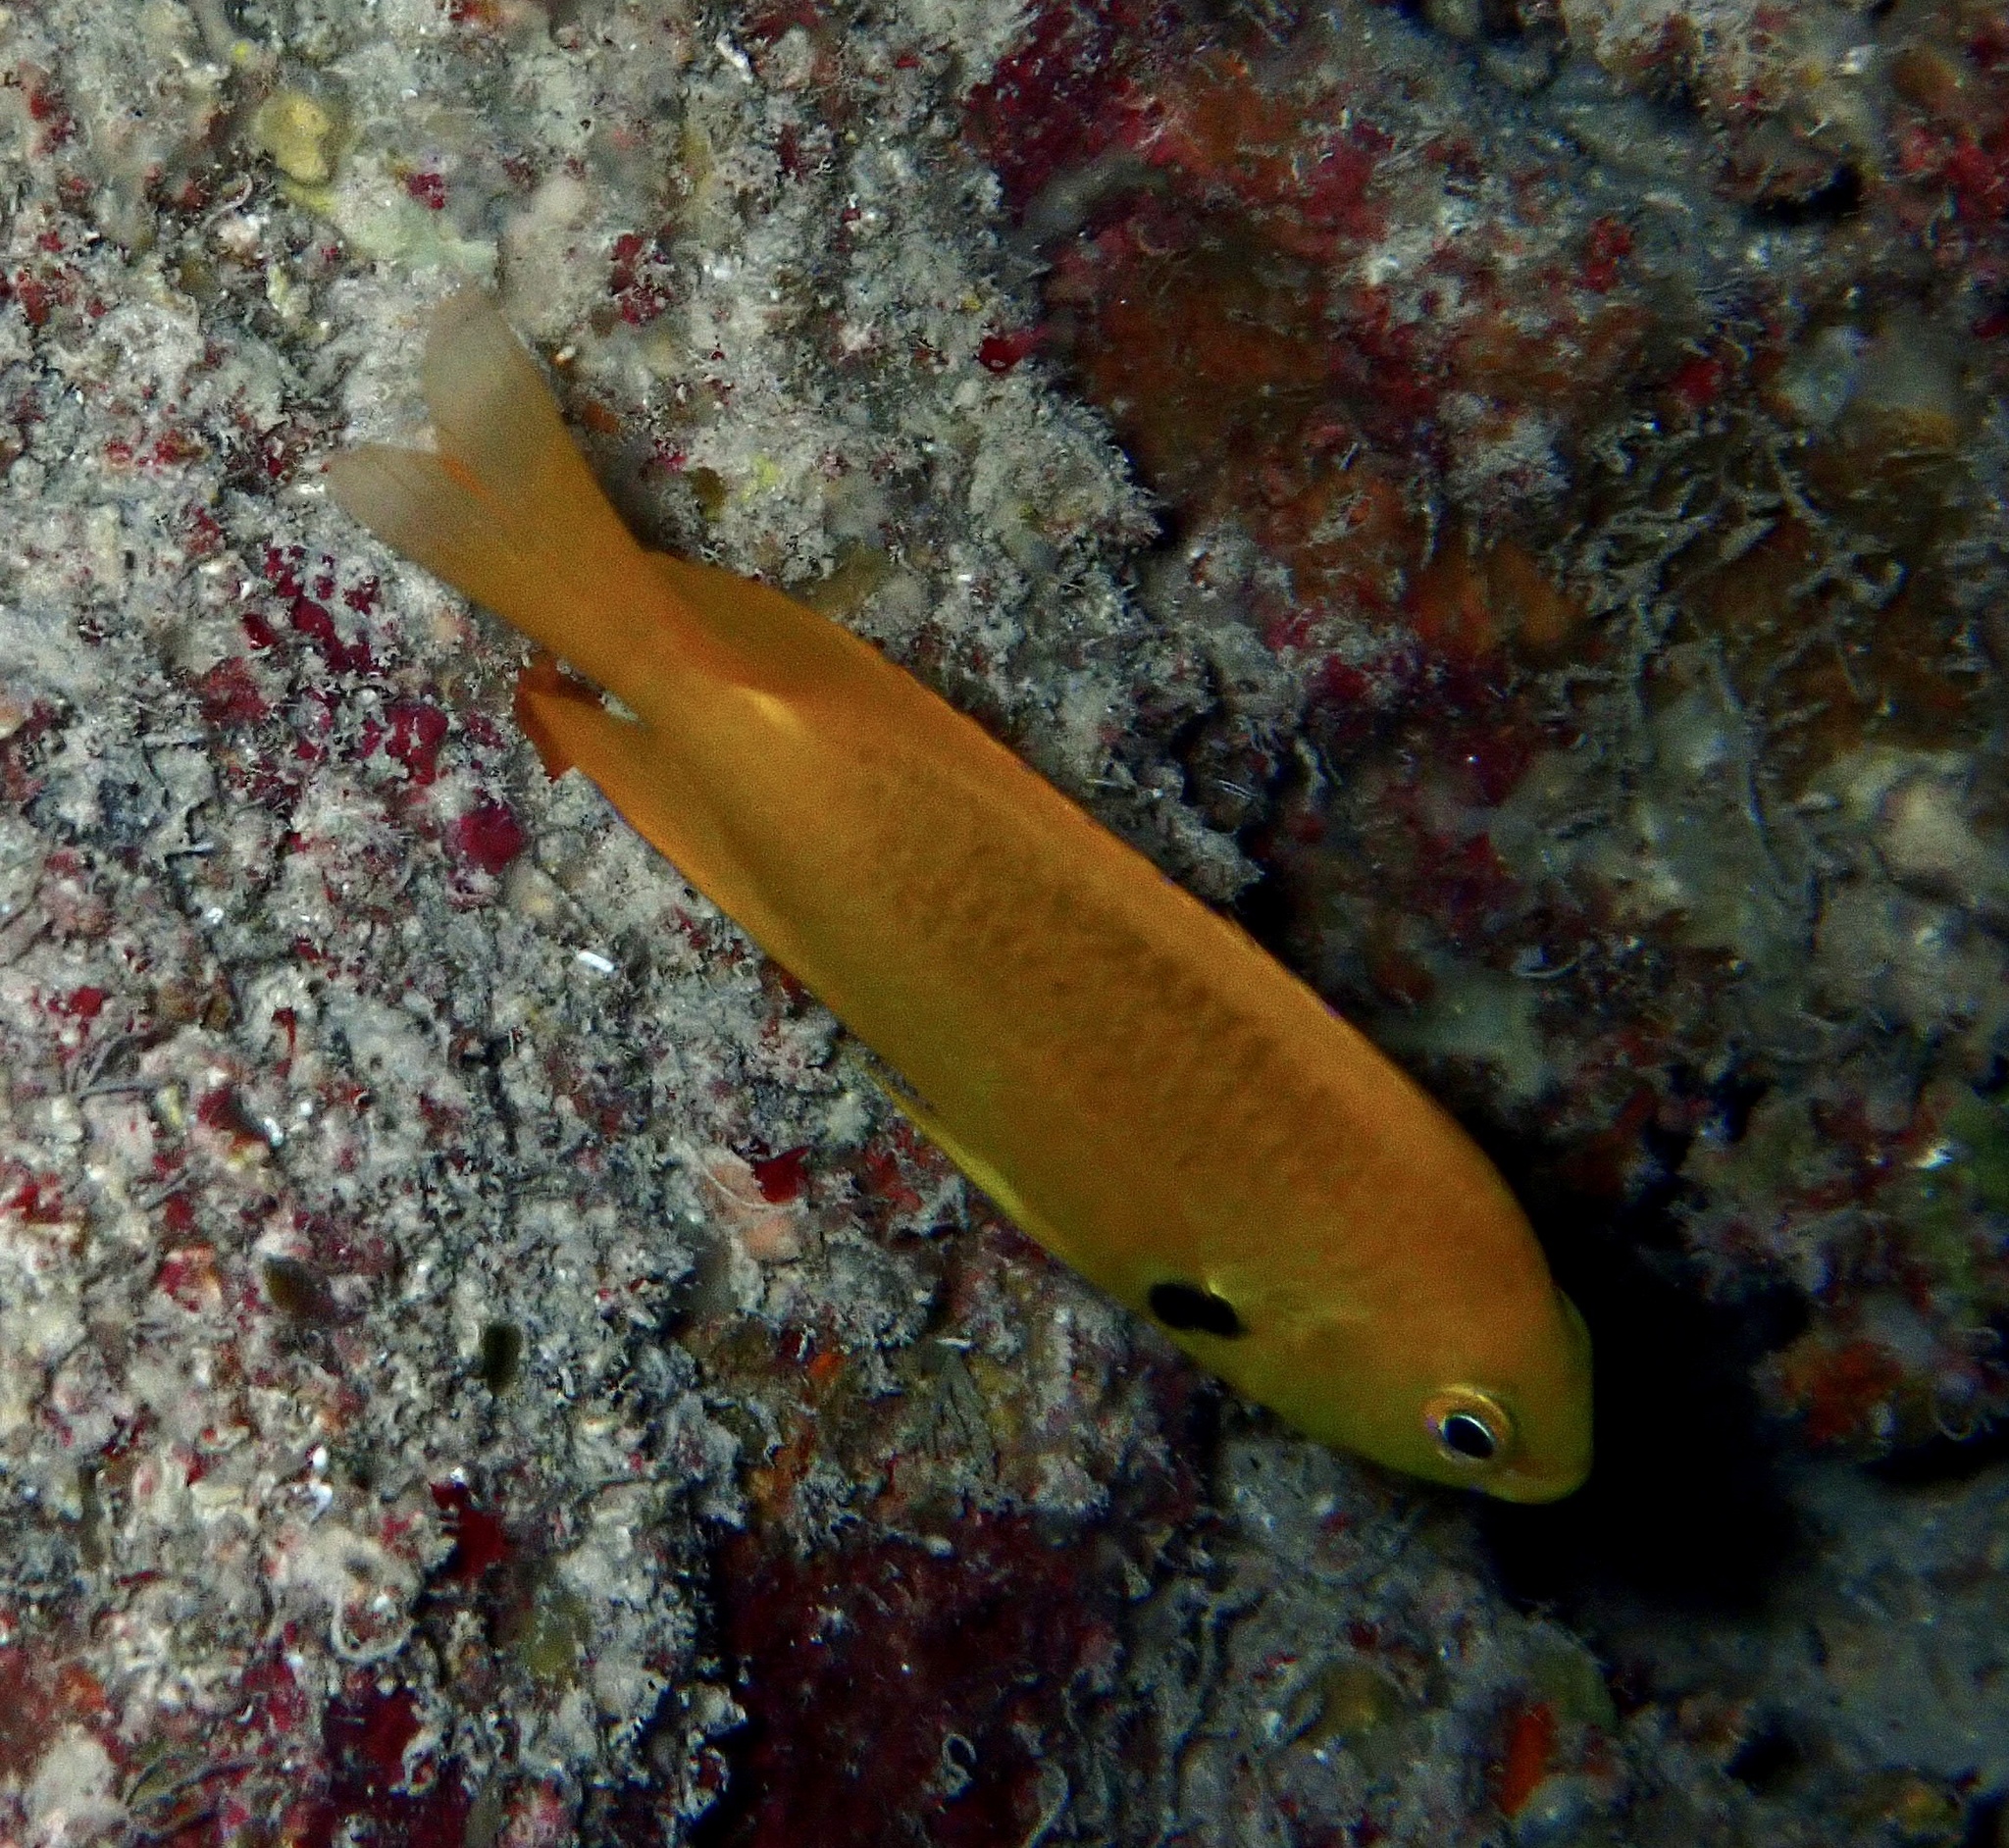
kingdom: Animalia
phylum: Chordata
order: Perciformes
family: Pomacentridae
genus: Pomacentrus
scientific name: Pomacentrus sulfureus
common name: Sulfur damsel
